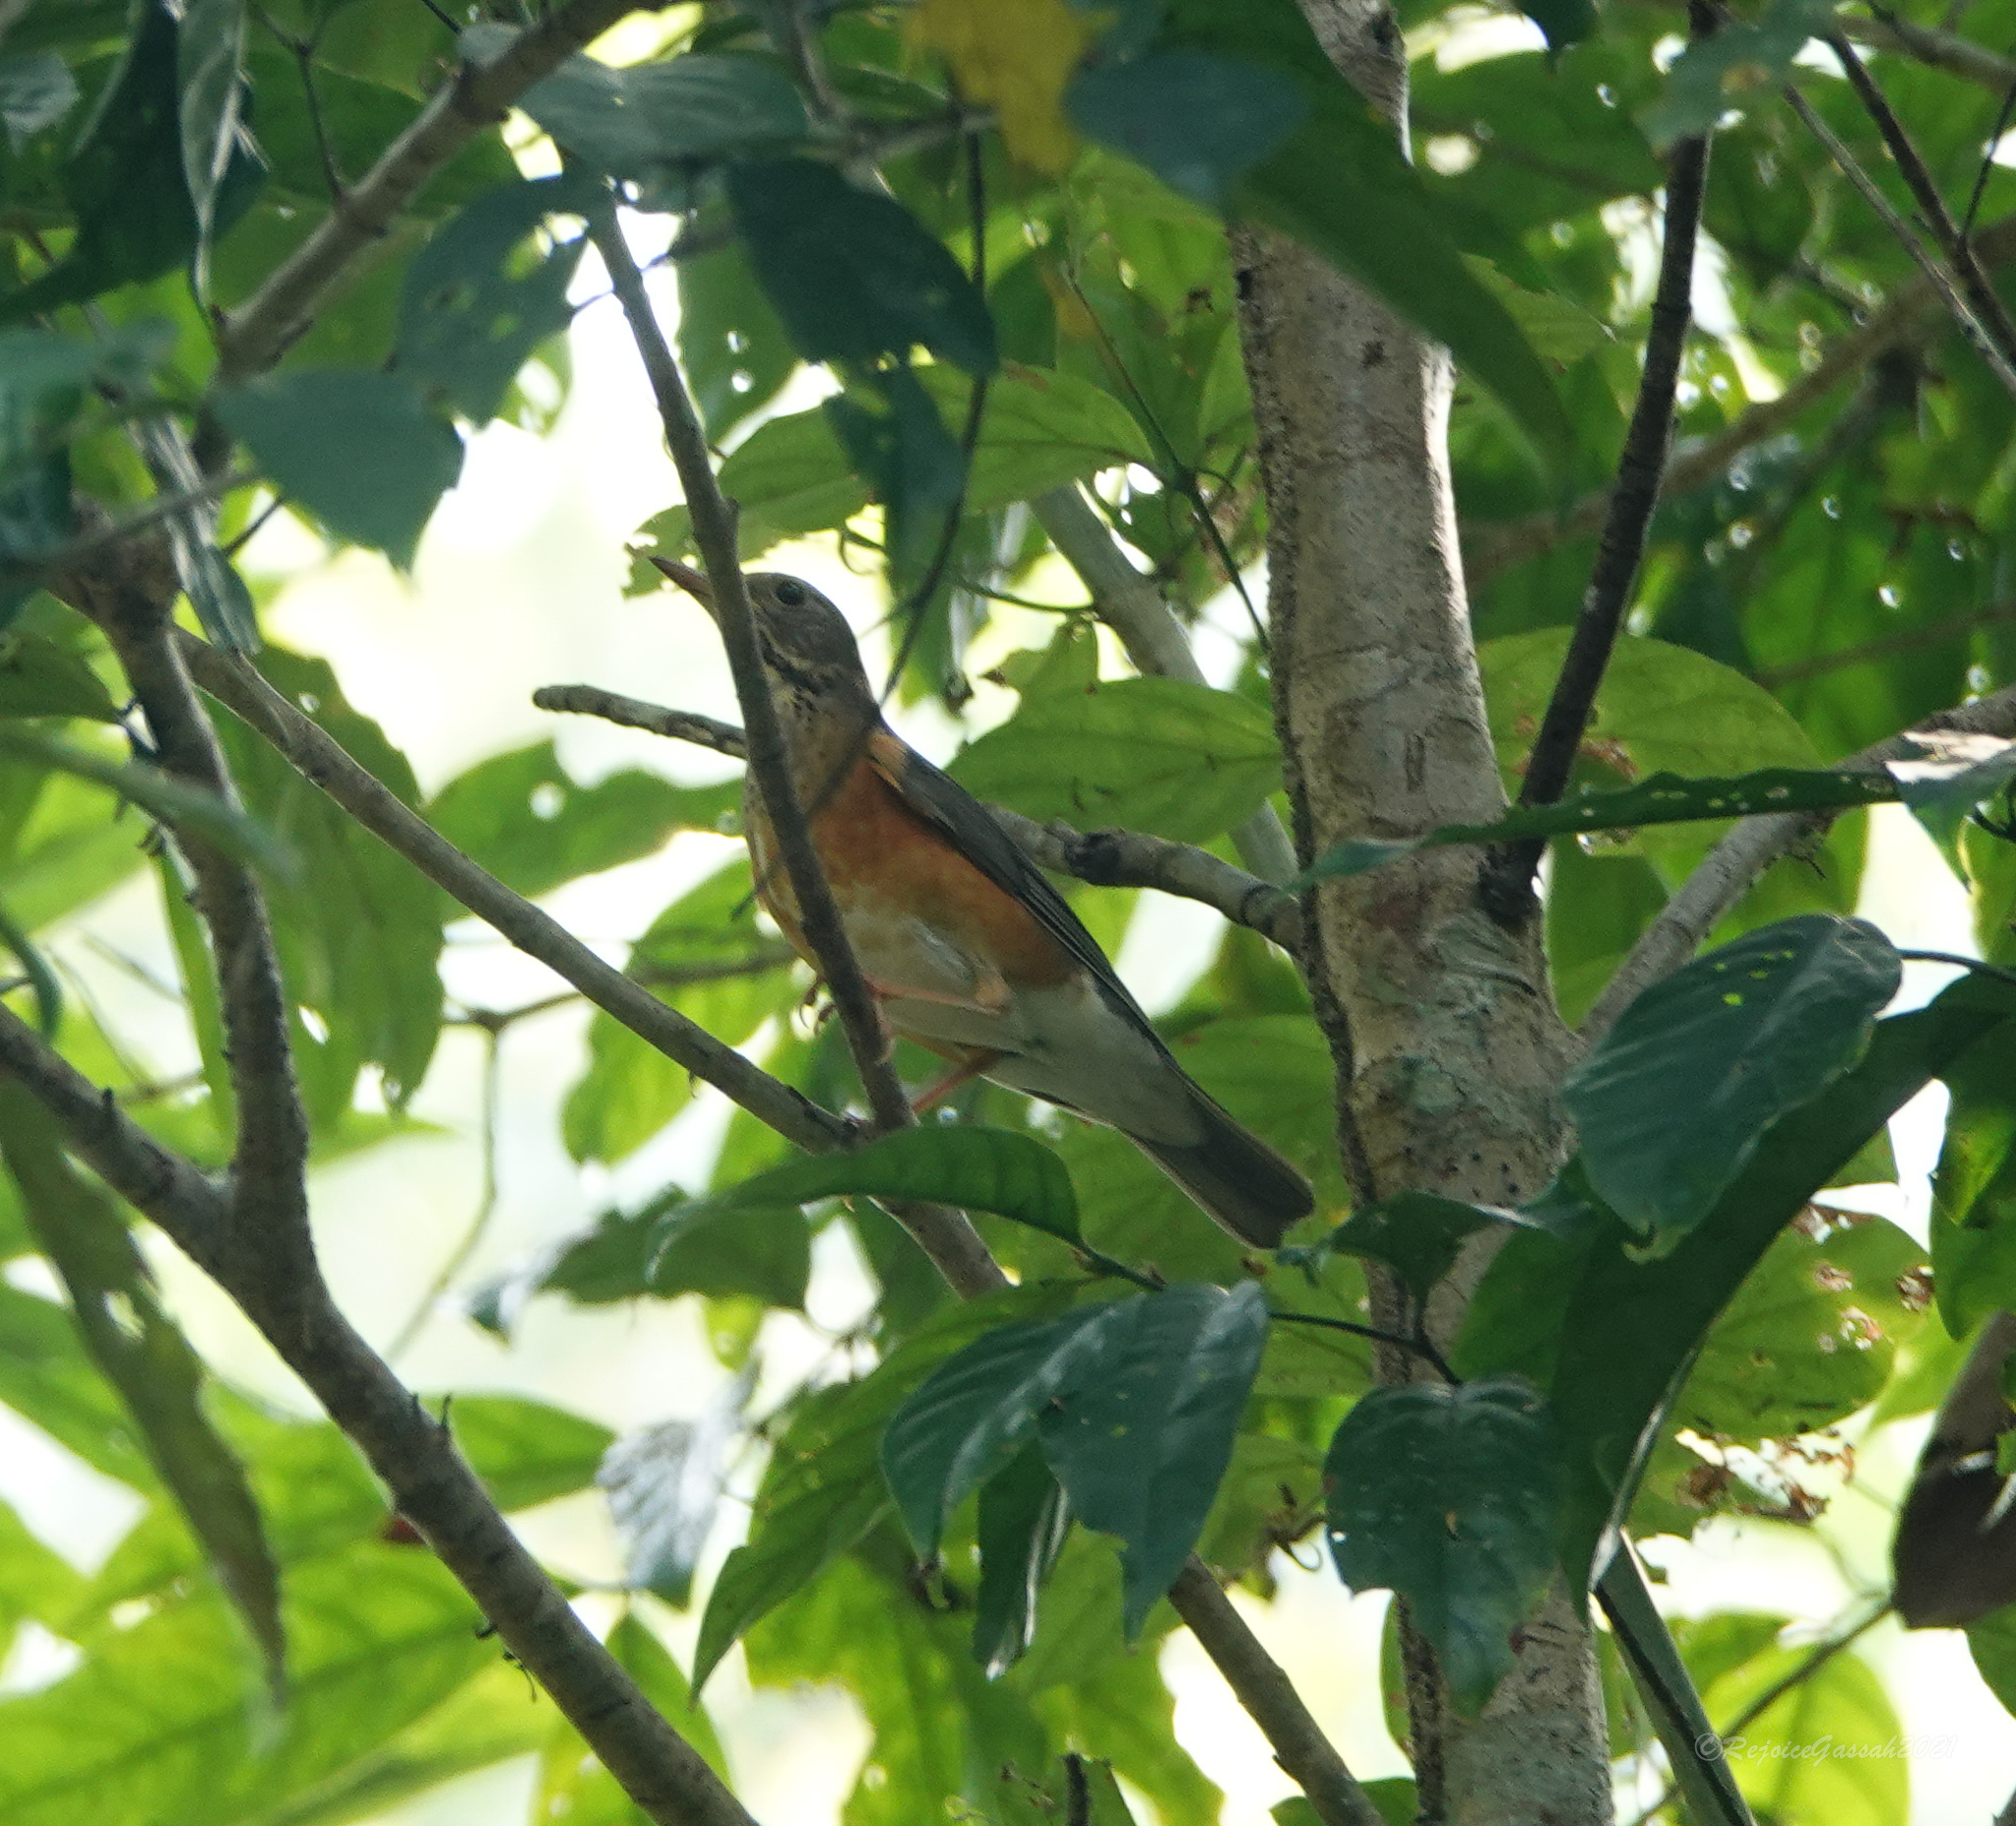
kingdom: Animalia
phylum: Chordata
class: Aves
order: Passeriformes
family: Turdidae
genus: Turdus
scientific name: Turdus dissimilis
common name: Black-breasted thrush
